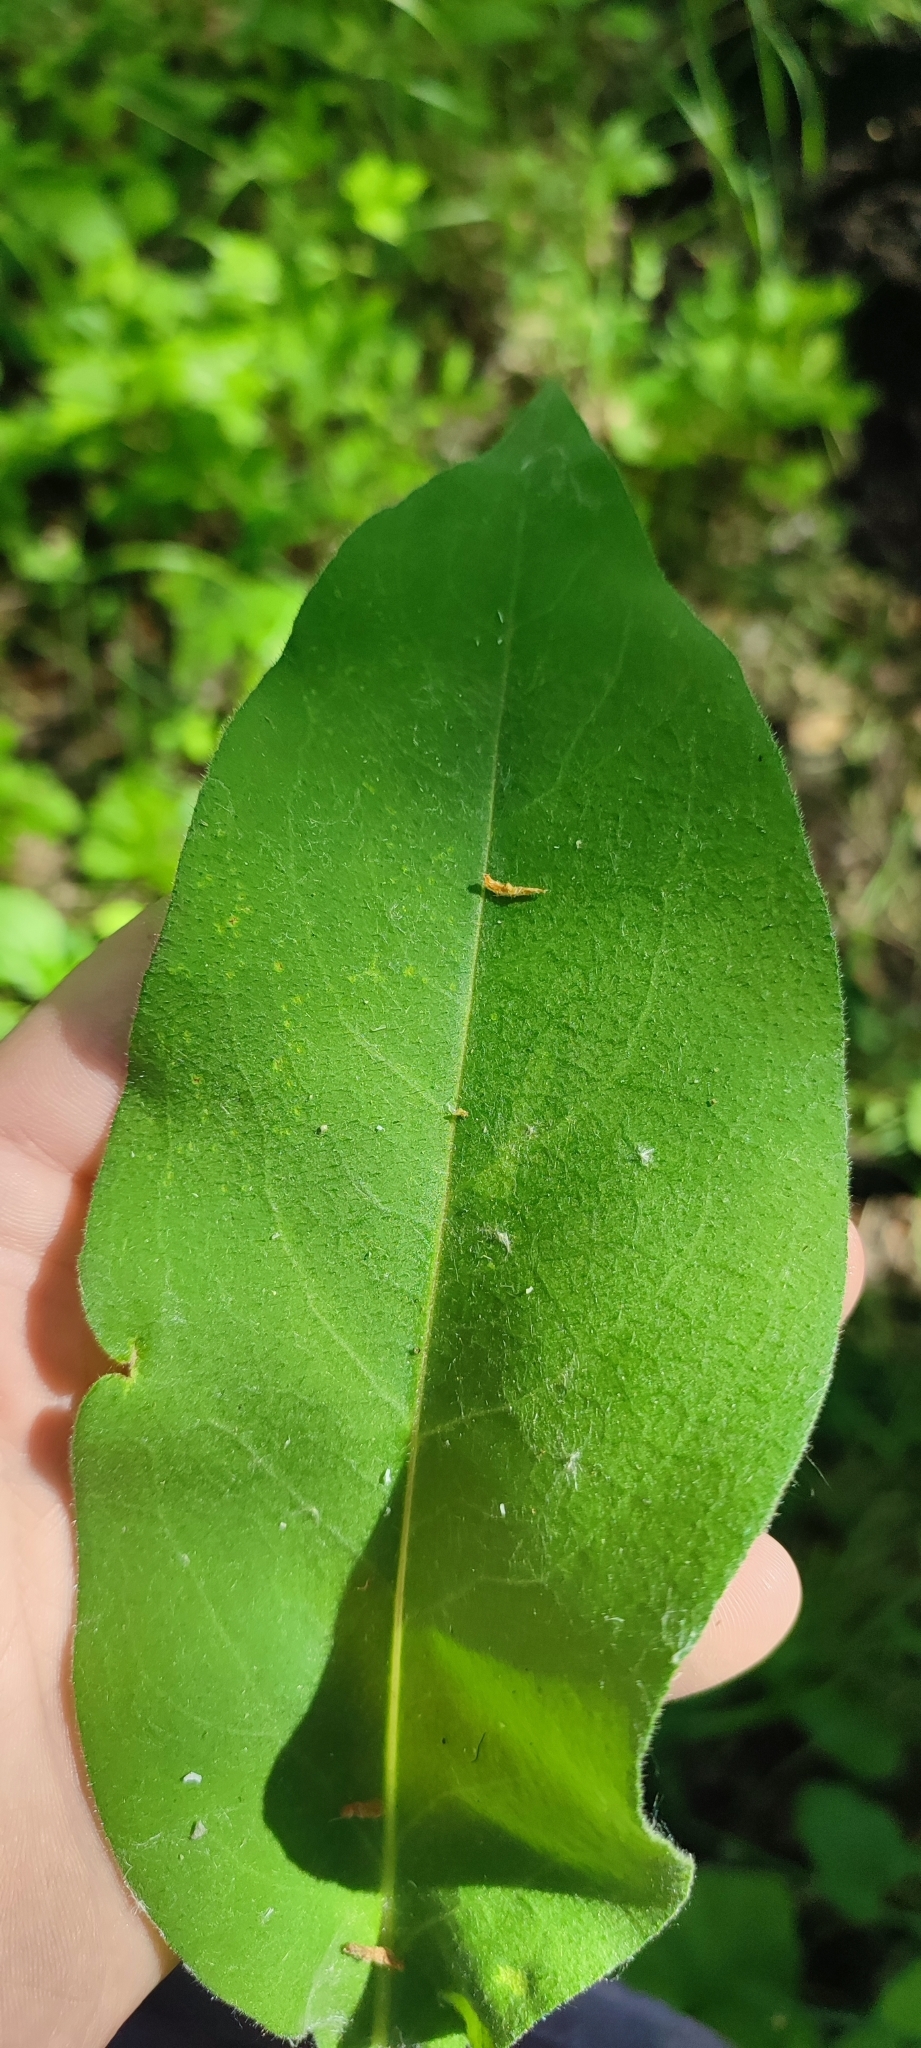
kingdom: Plantae
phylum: Tracheophyta
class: Magnoliopsida
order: Boraginales
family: Boraginaceae
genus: Pulmonaria
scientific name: Pulmonaria mollis
